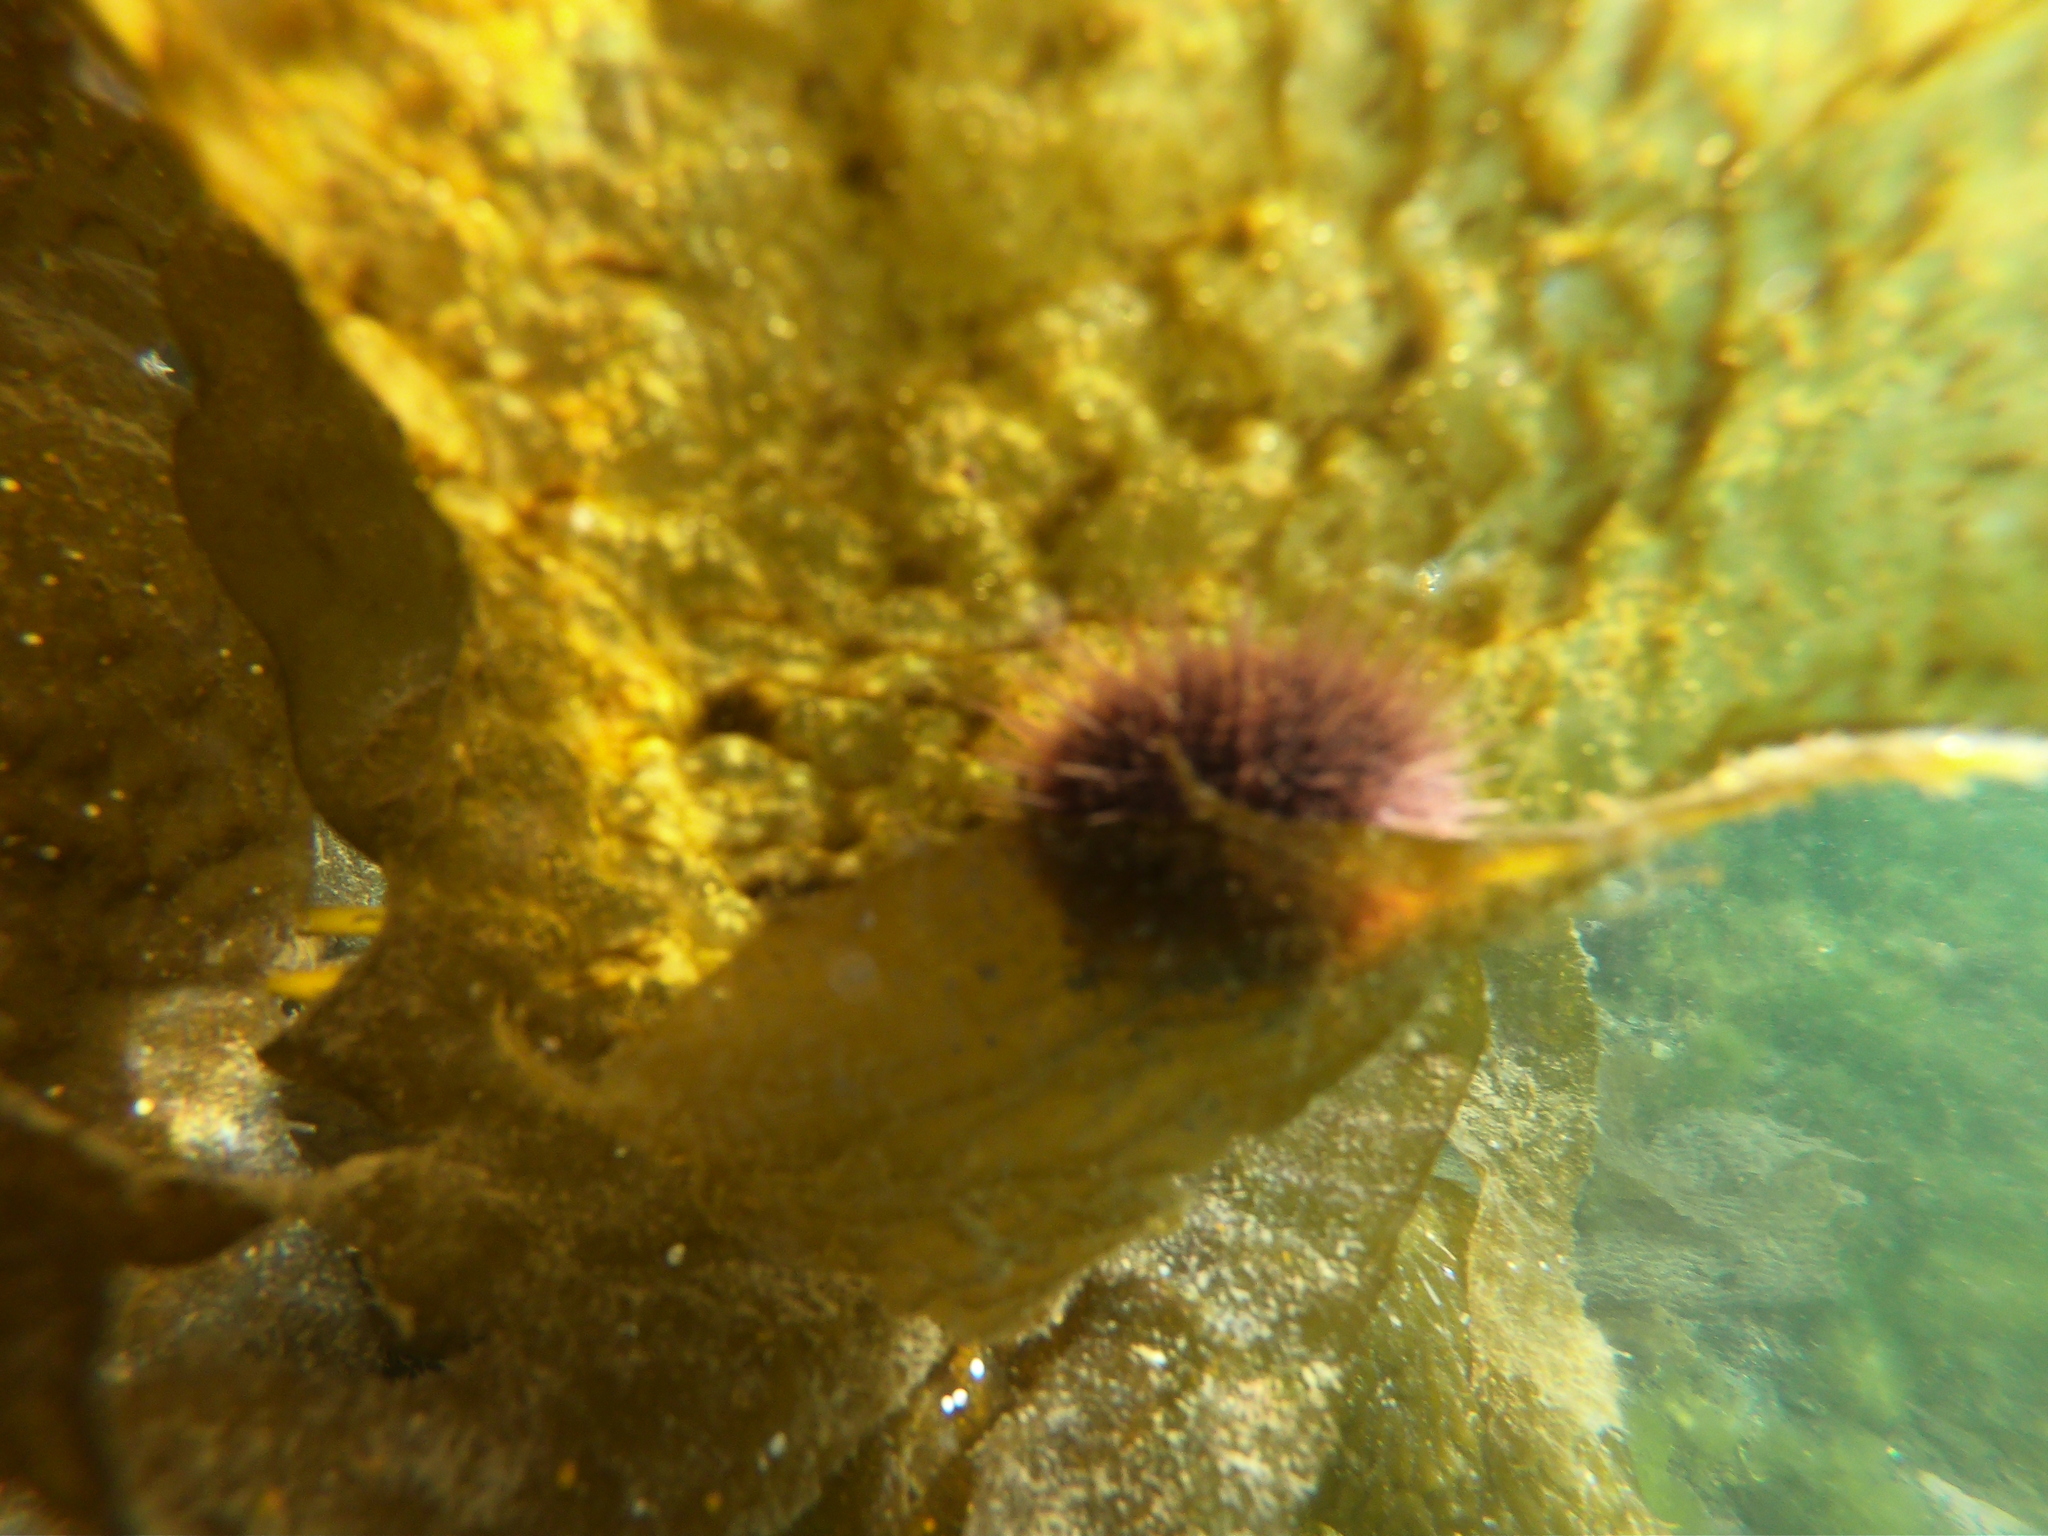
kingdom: Animalia
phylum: Echinodermata
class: Echinoidea
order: Camarodonta
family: Temnopleuridae
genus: Pseudechinus
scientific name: Pseudechinus magellanicus
